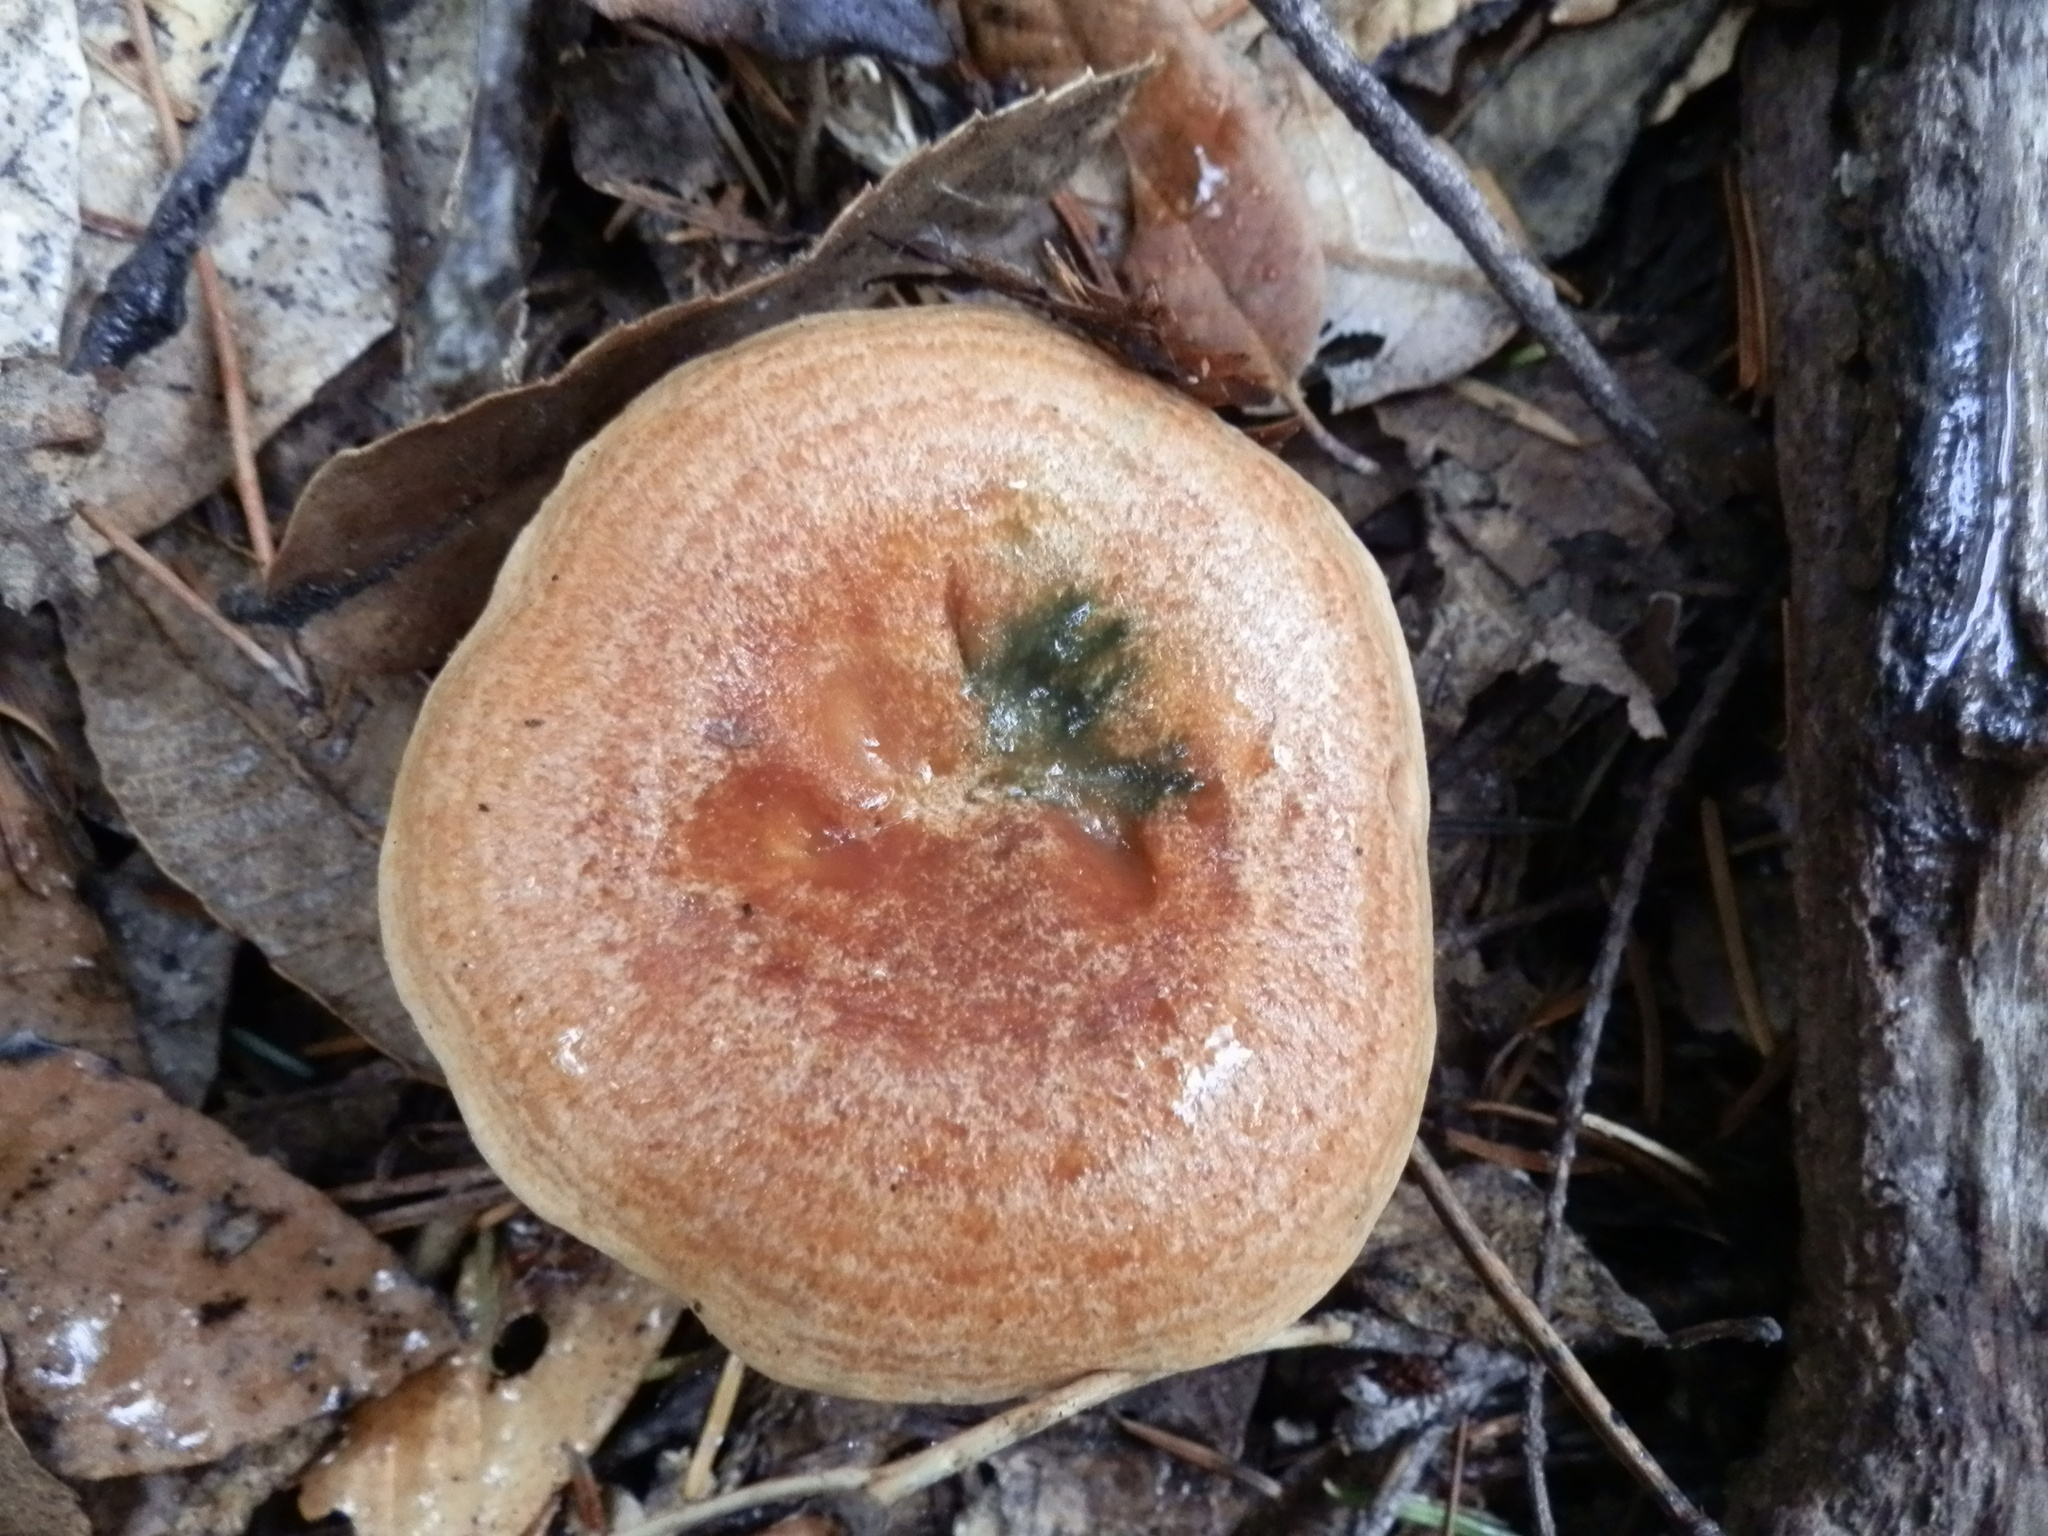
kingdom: Fungi
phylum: Basidiomycota
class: Agaricomycetes
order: Russulales
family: Russulaceae
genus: Lactarius
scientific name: Lactarius rubrilacteus
